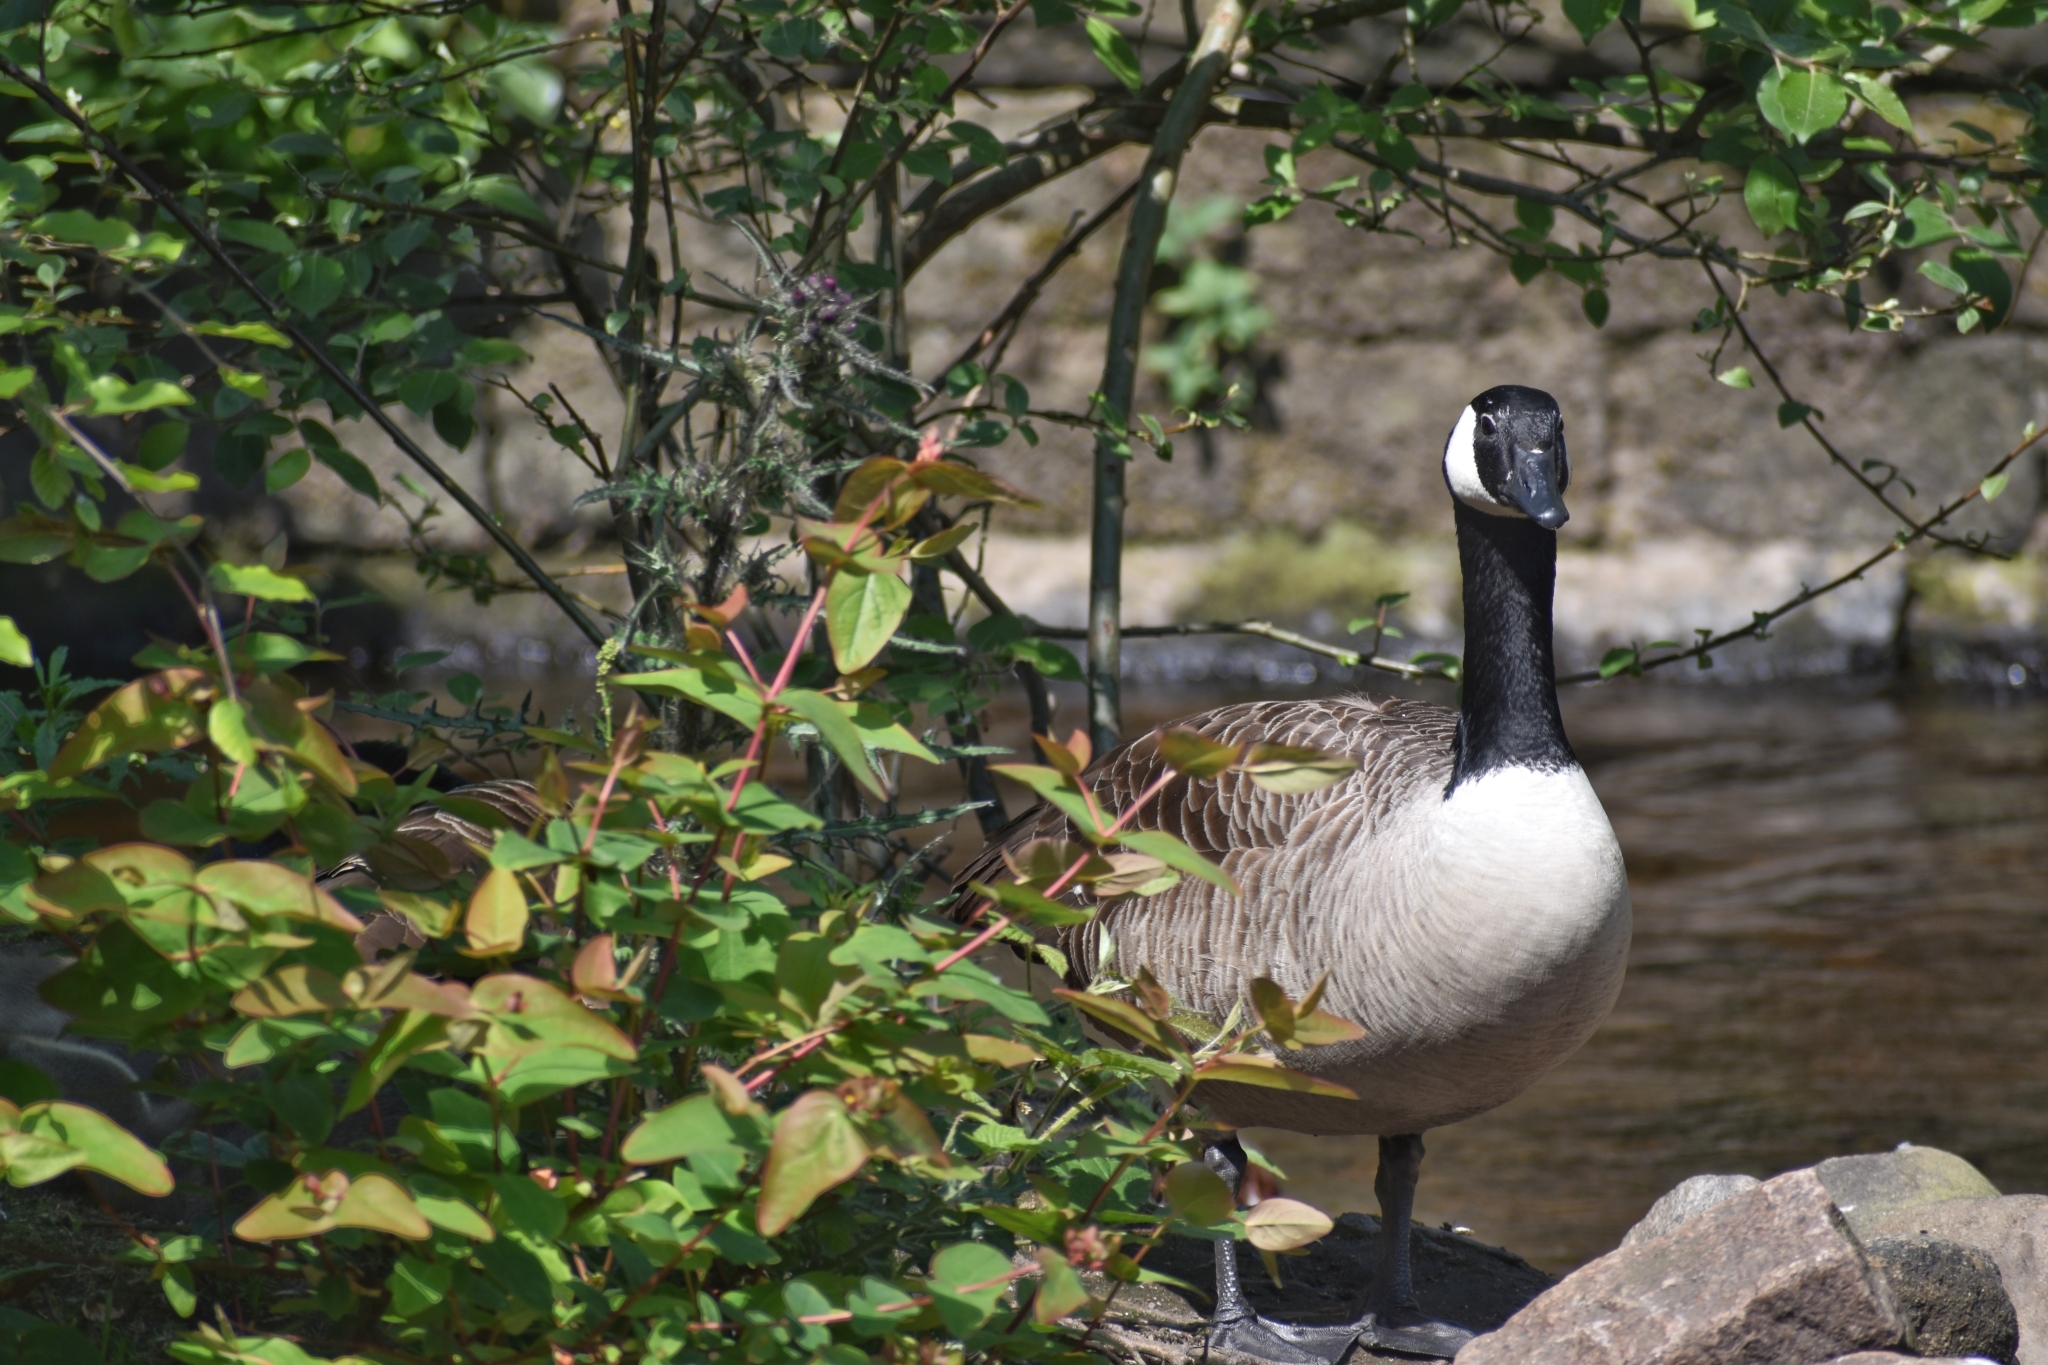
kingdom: Animalia
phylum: Chordata
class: Aves
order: Anseriformes
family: Anatidae
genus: Branta
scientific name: Branta canadensis
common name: Canada goose
